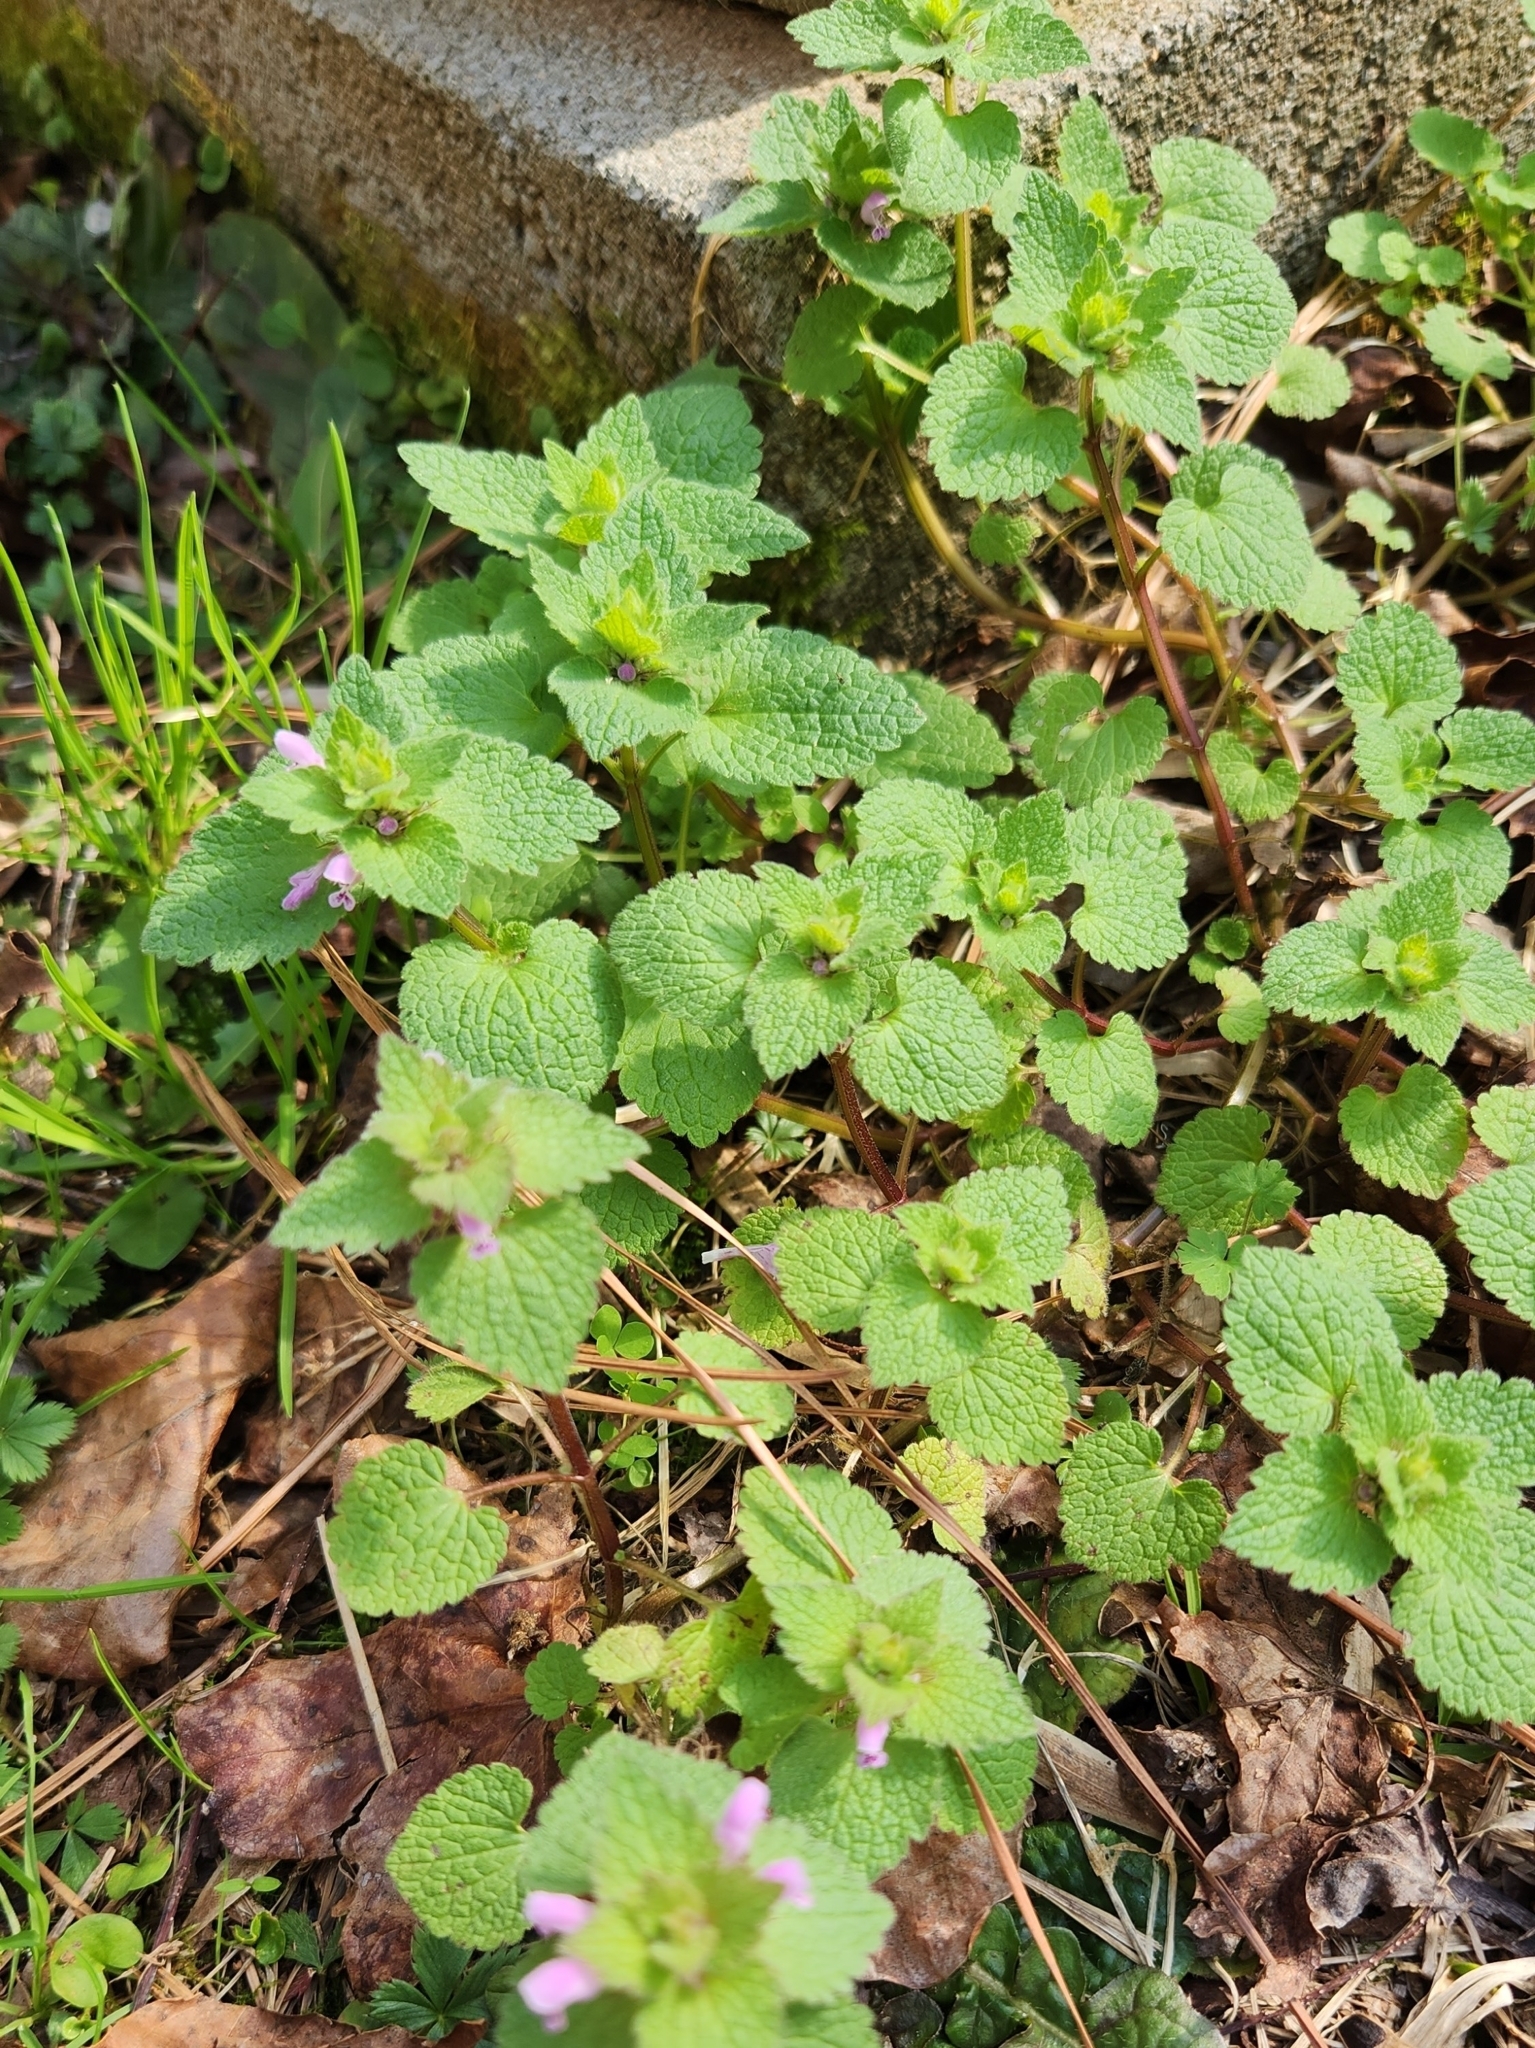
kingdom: Plantae
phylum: Tracheophyta
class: Magnoliopsida
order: Lamiales
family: Lamiaceae
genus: Lamium
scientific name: Lamium purpureum
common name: Red dead-nettle
